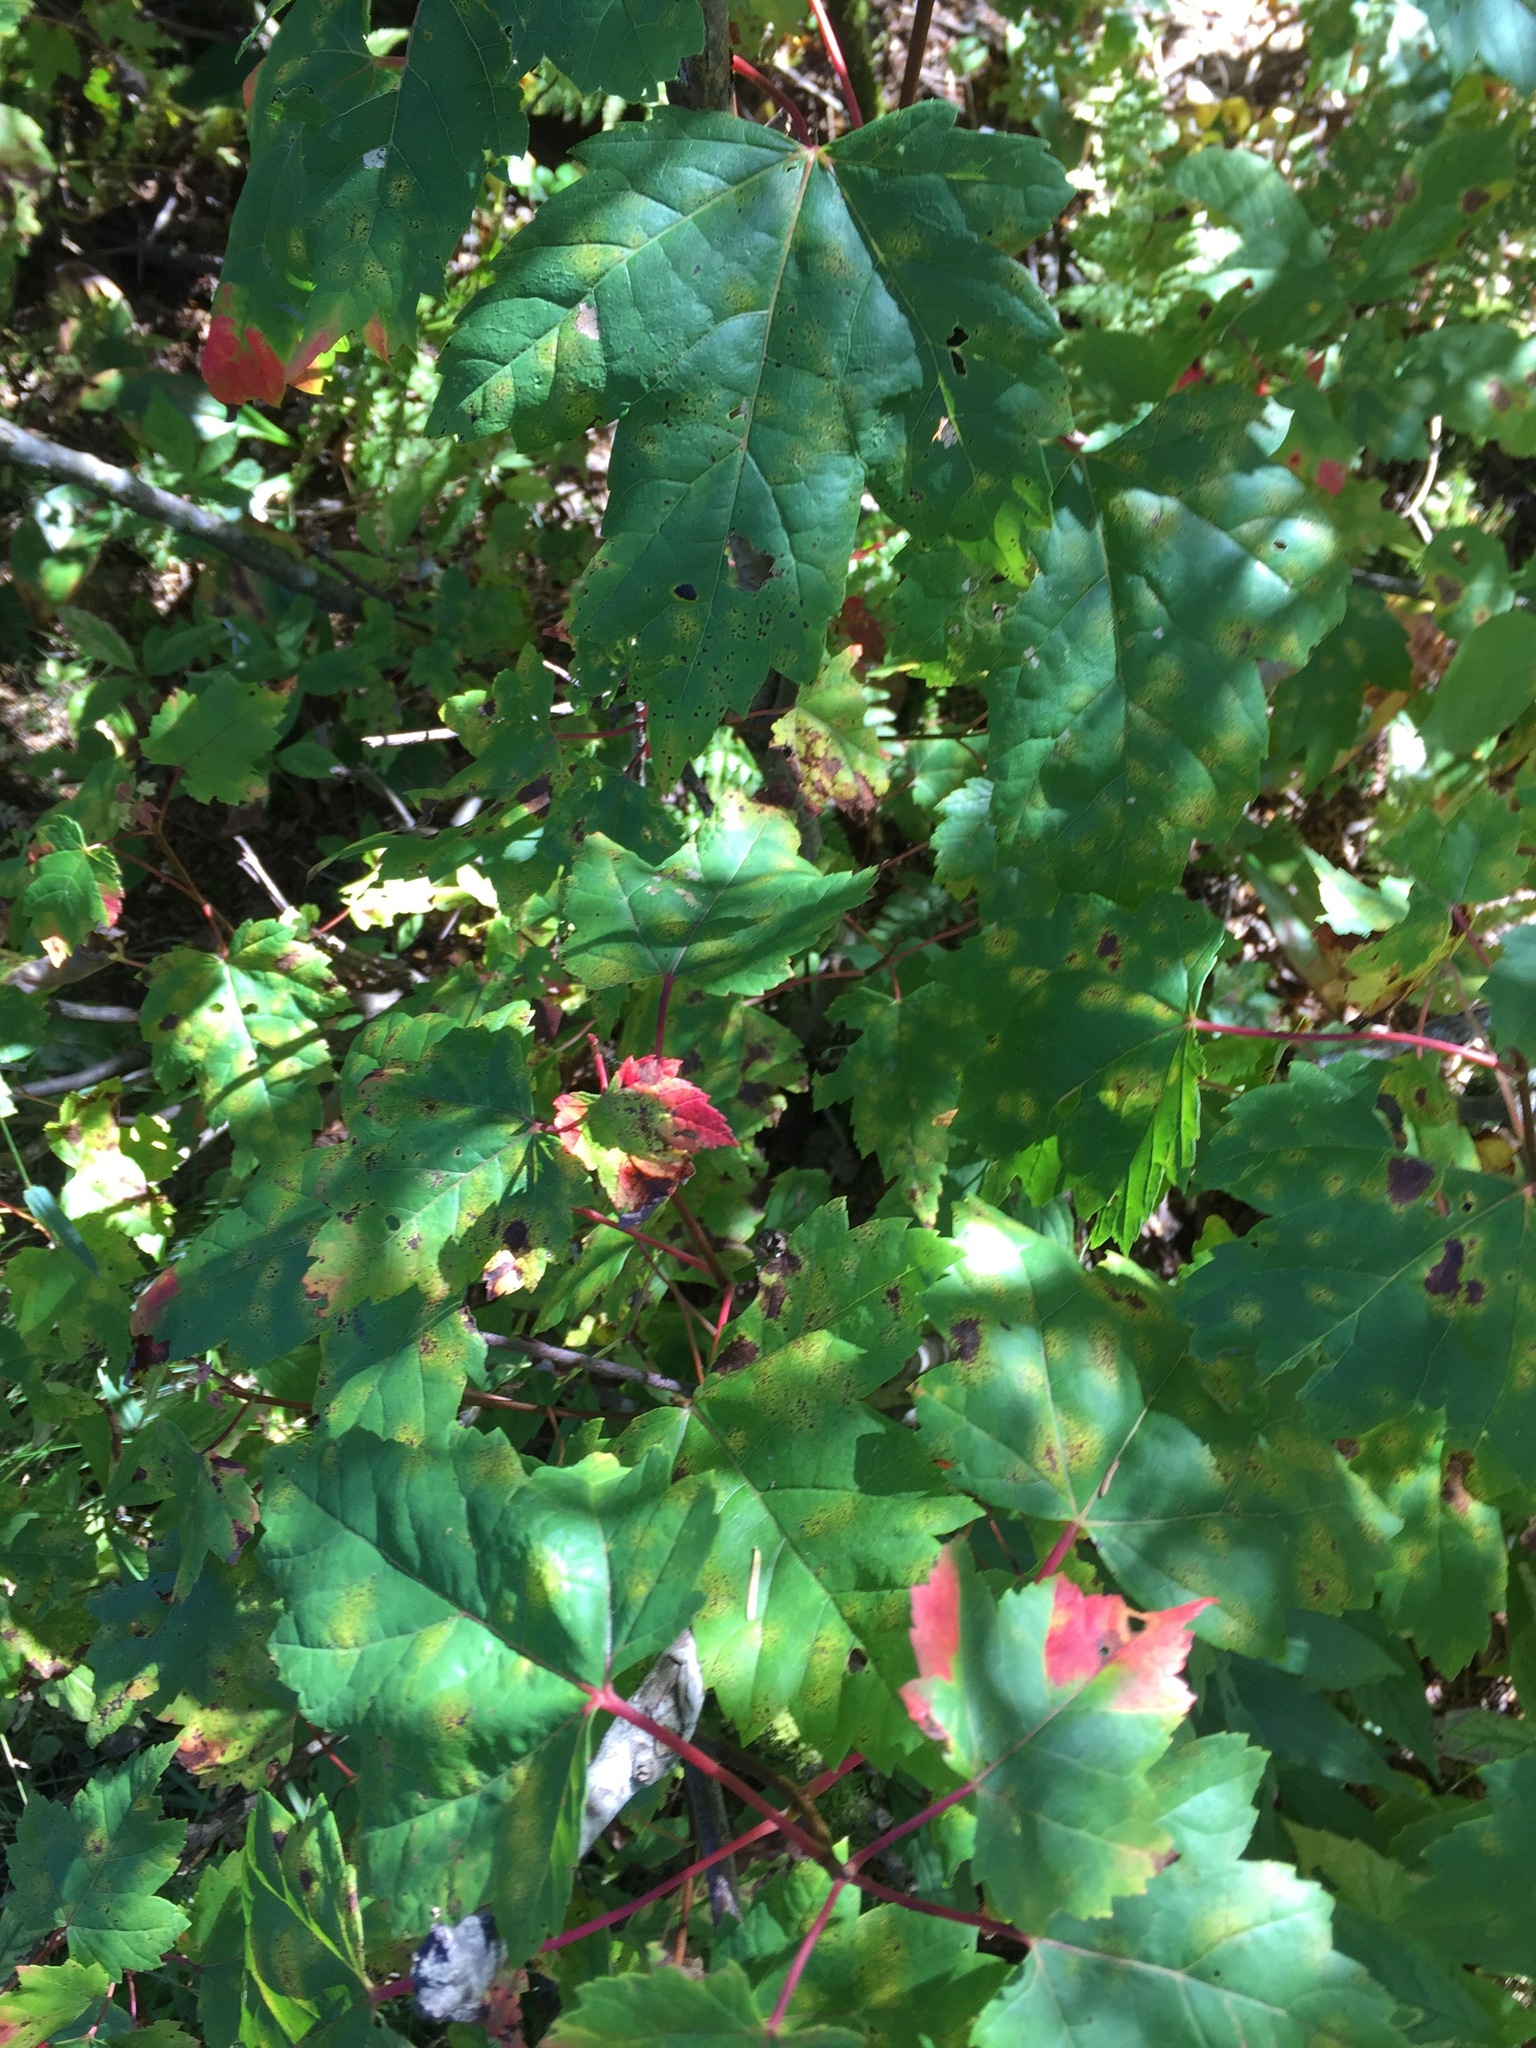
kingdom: Plantae
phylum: Tracheophyta
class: Magnoliopsida
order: Sapindales
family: Sapindaceae
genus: Acer
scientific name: Acer rubrum
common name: Red maple
